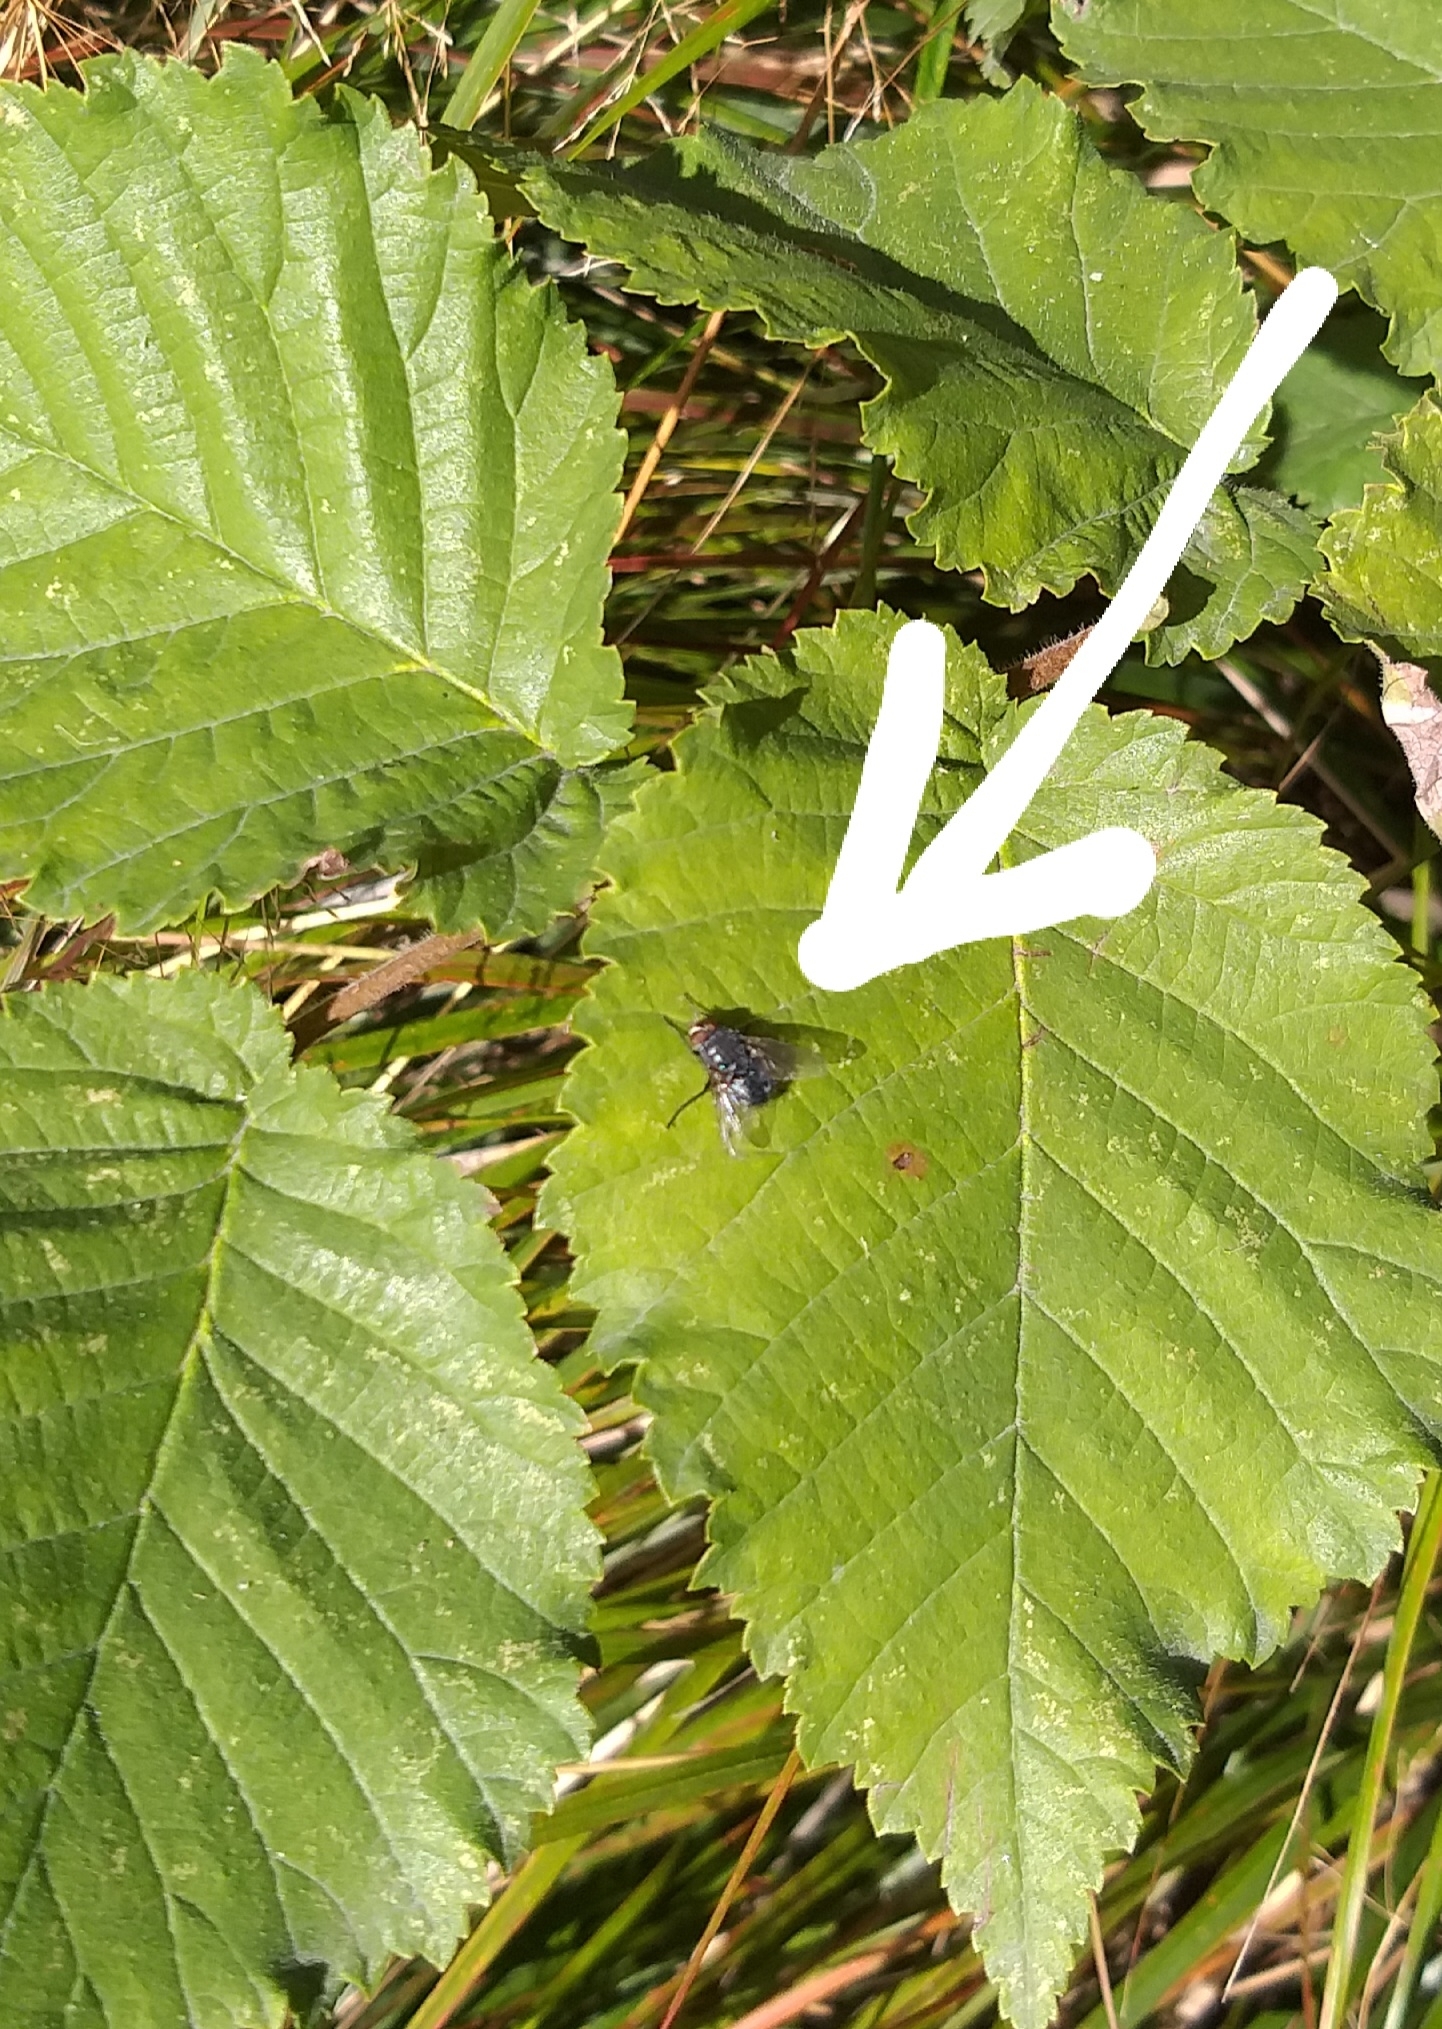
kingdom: Animalia
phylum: Arthropoda
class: Insecta
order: Diptera
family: Calliphoridae
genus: Calliphora
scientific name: Calliphora vicina
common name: Common blow flie
